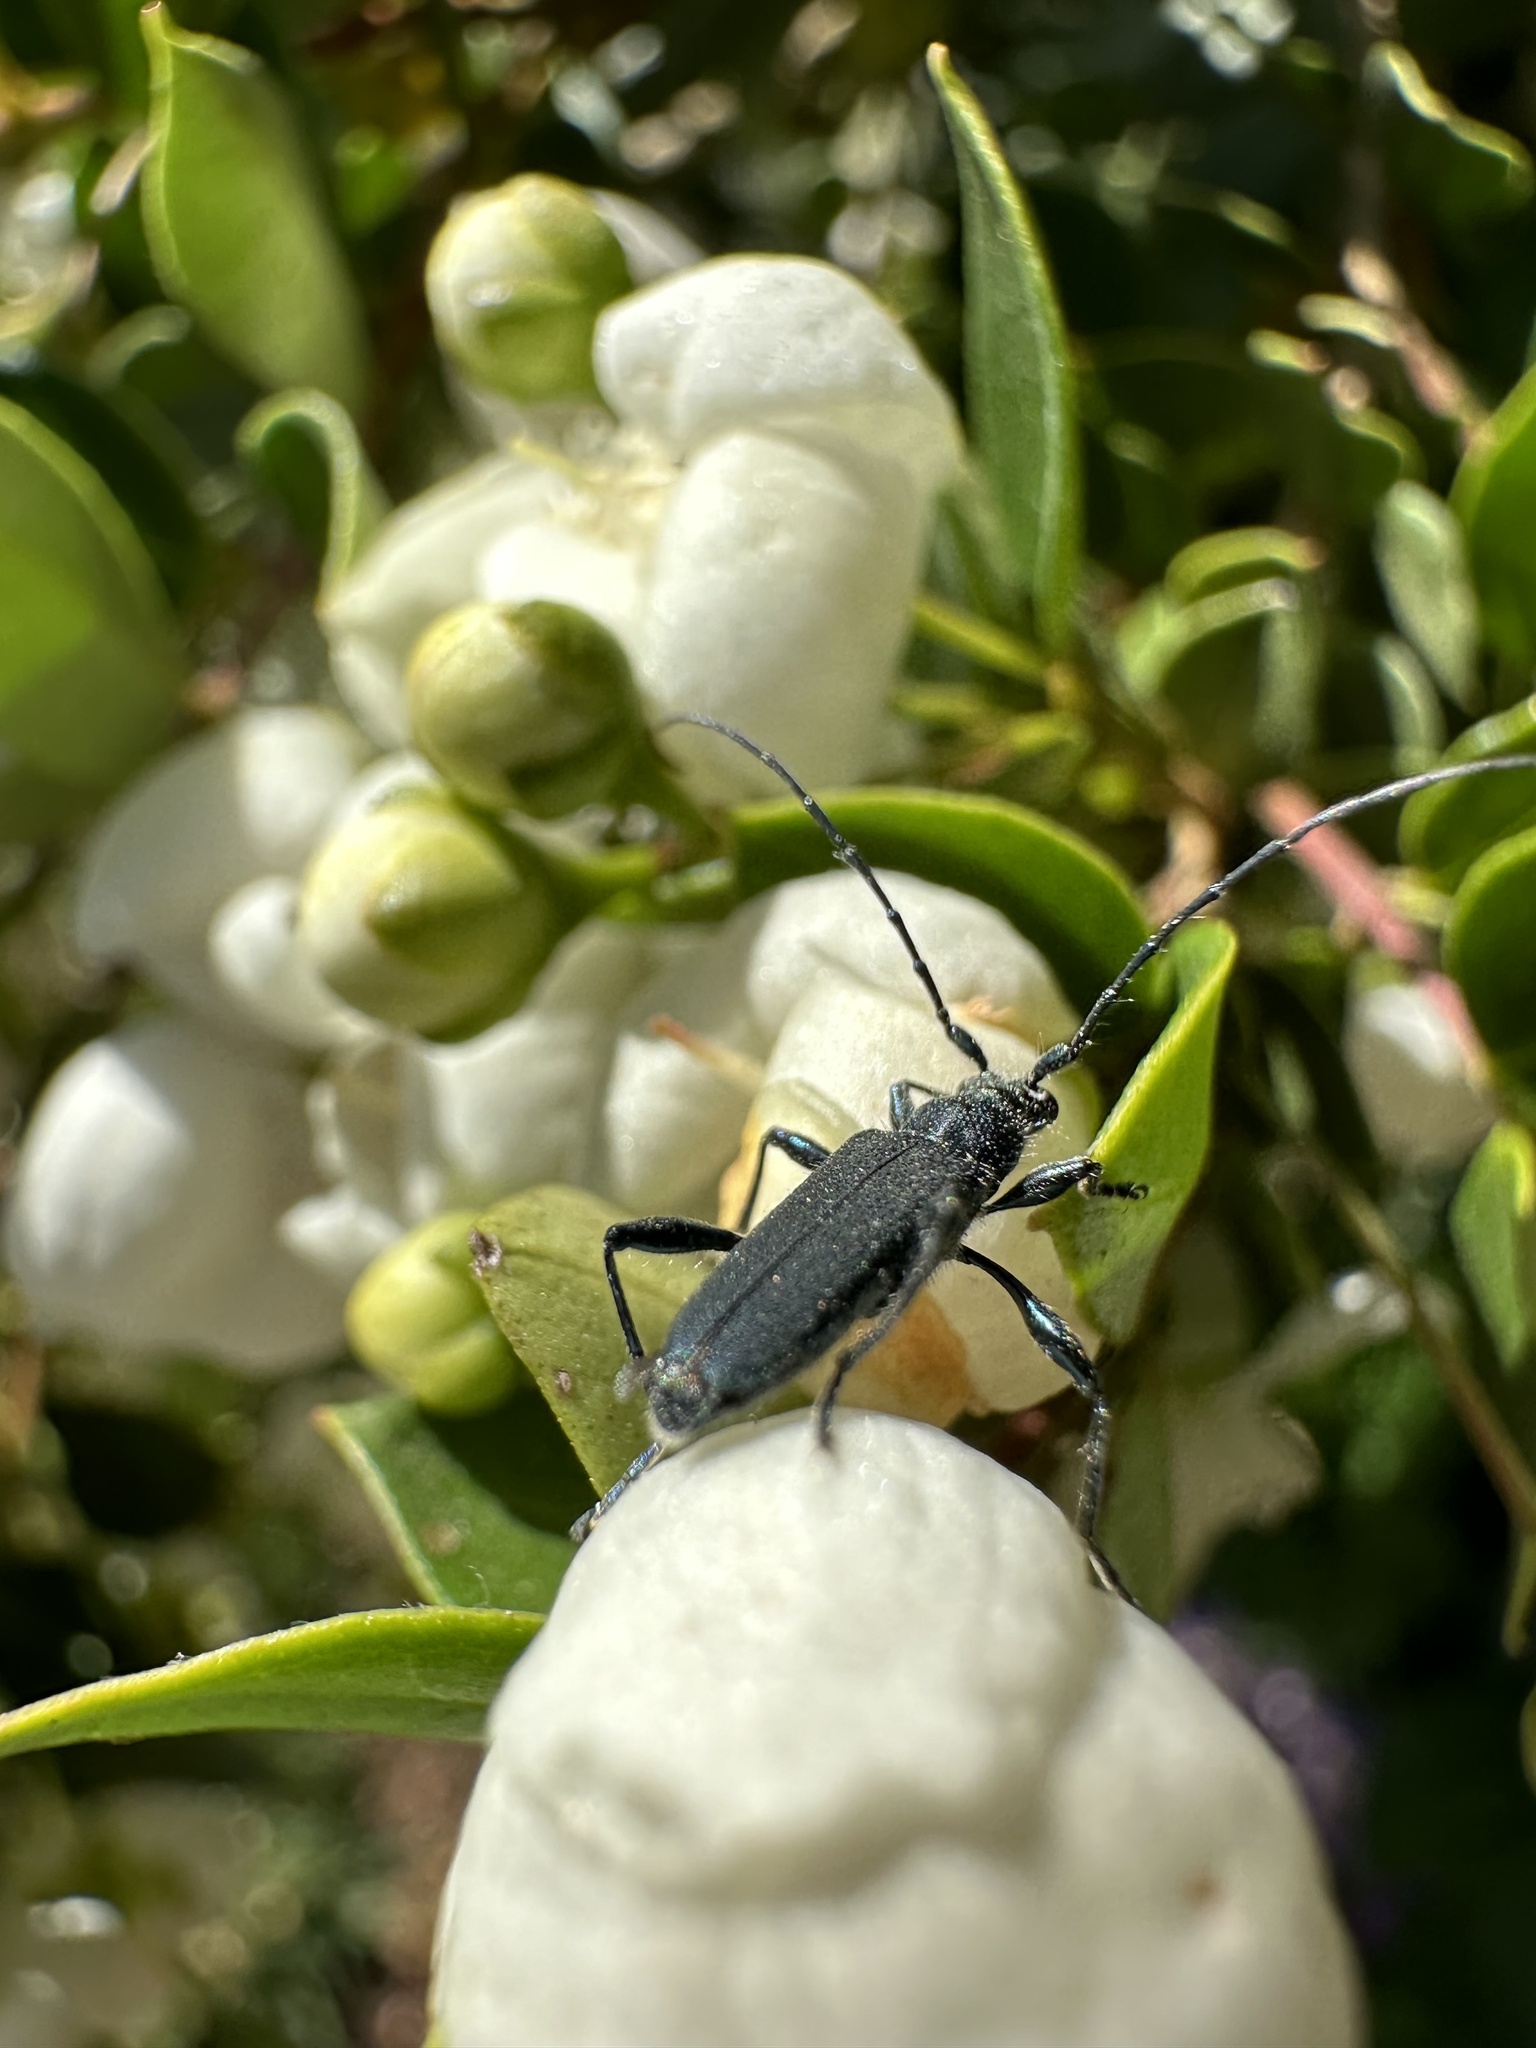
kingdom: Animalia
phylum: Arthropoda
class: Insecta
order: Coleoptera
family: Cerambycidae
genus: Eryphus
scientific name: Eryphus laetus
